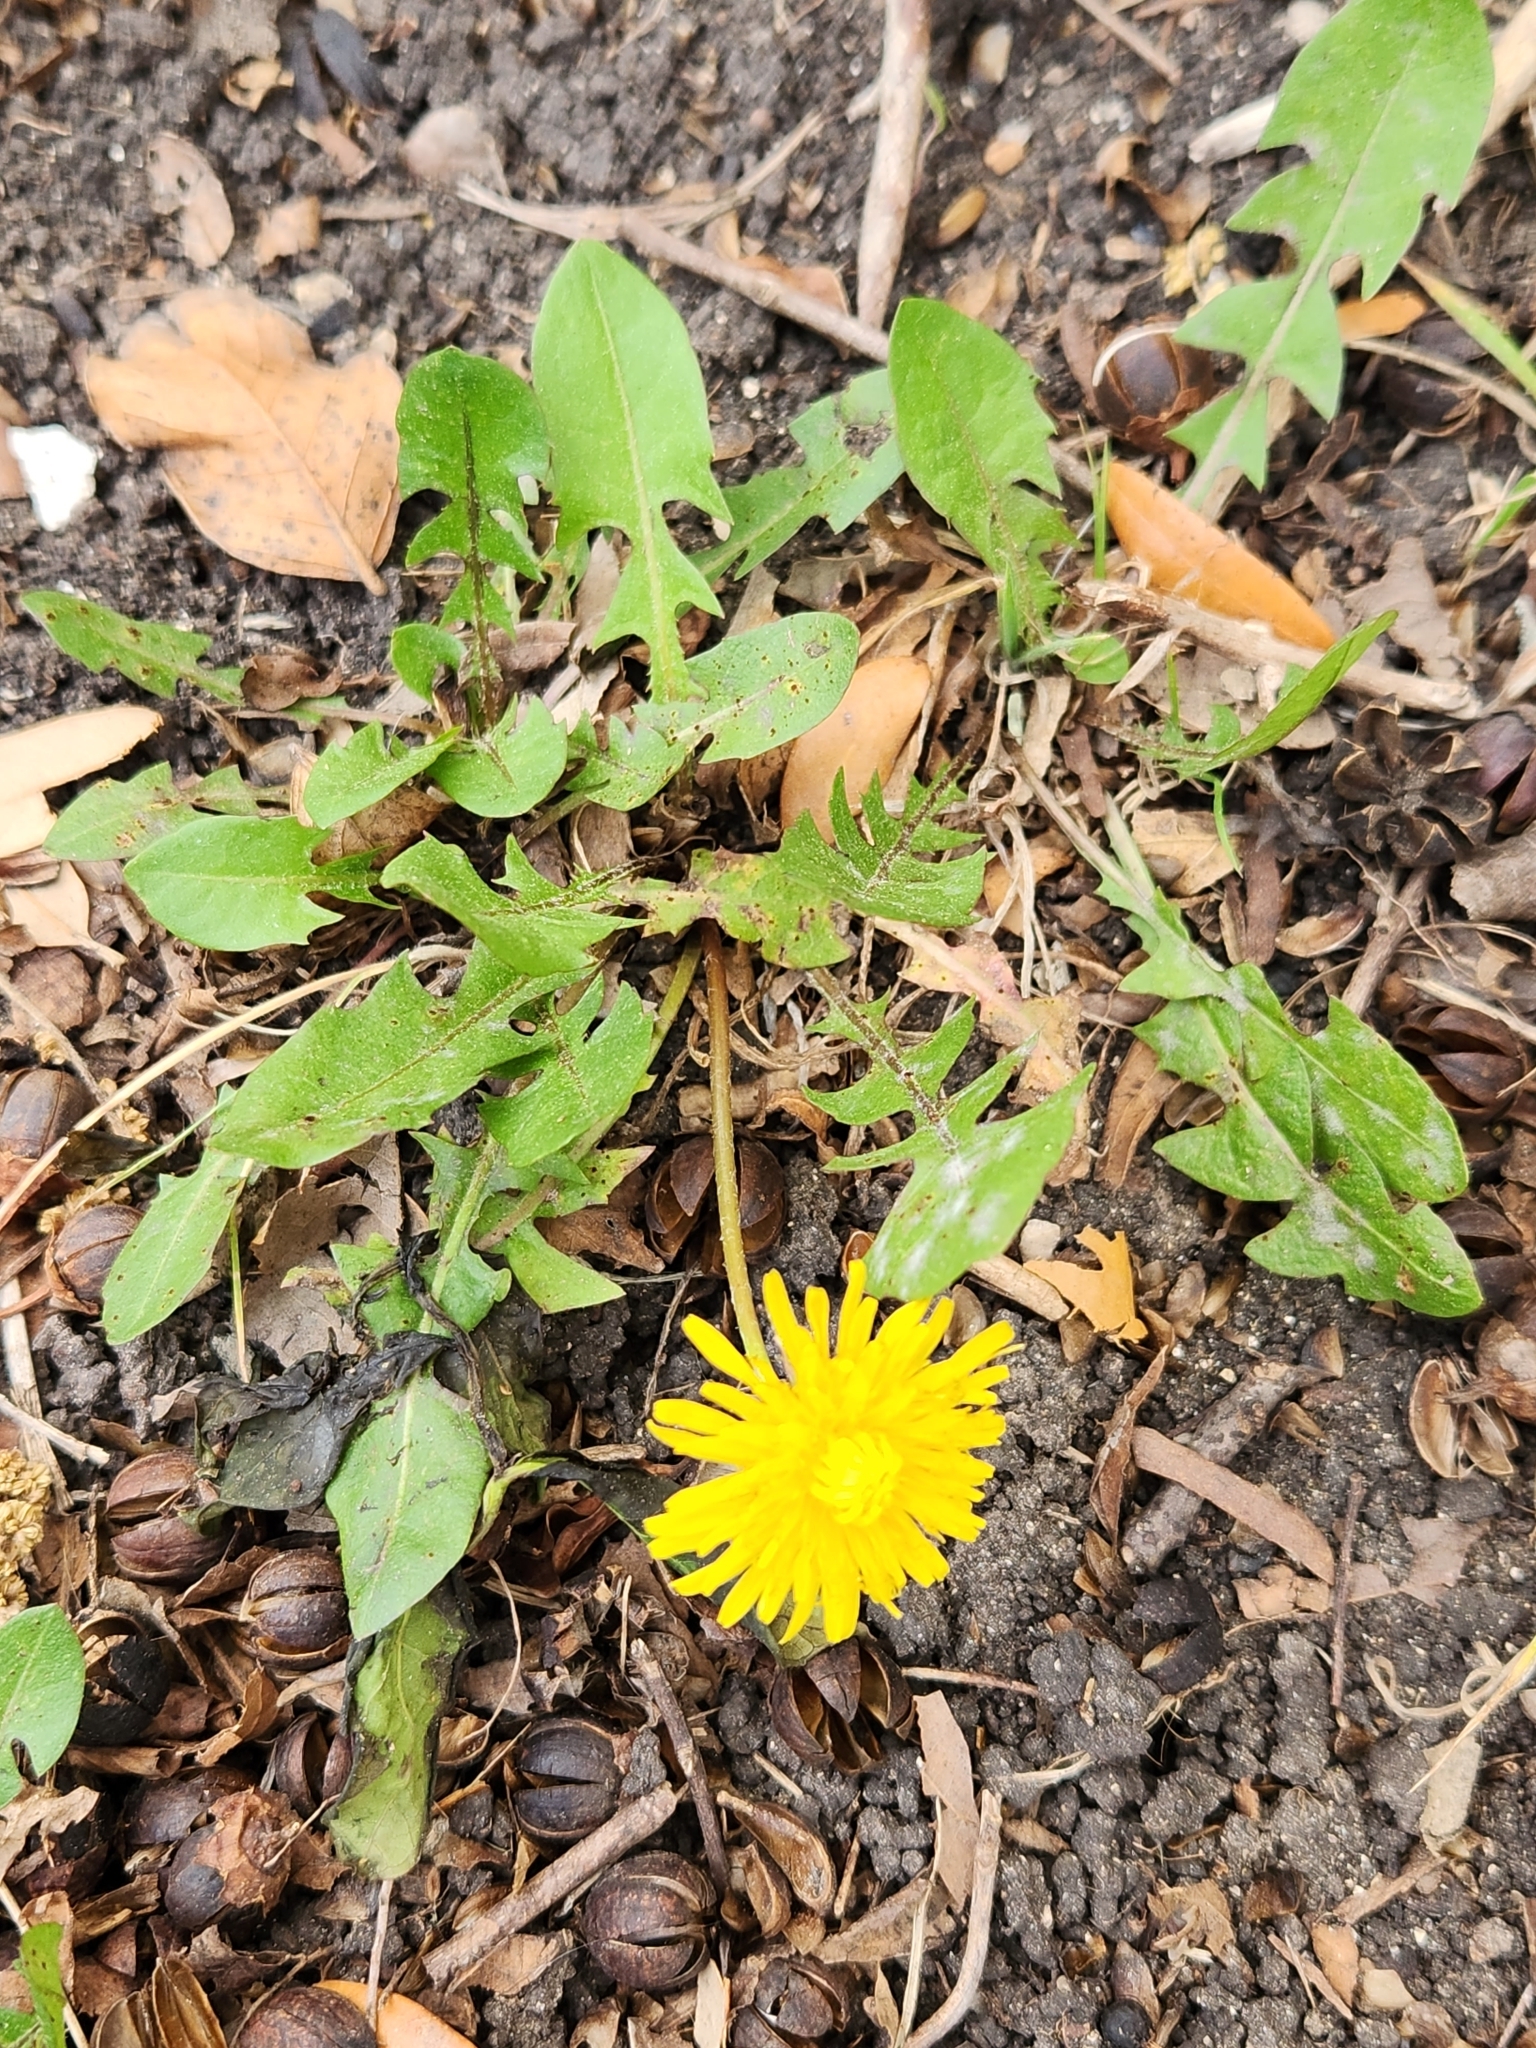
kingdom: Plantae
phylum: Tracheophyta
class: Magnoliopsida
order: Asterales
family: Asteraceae
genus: Taraxacum
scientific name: Taraxacum officinale
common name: Common dandelion
